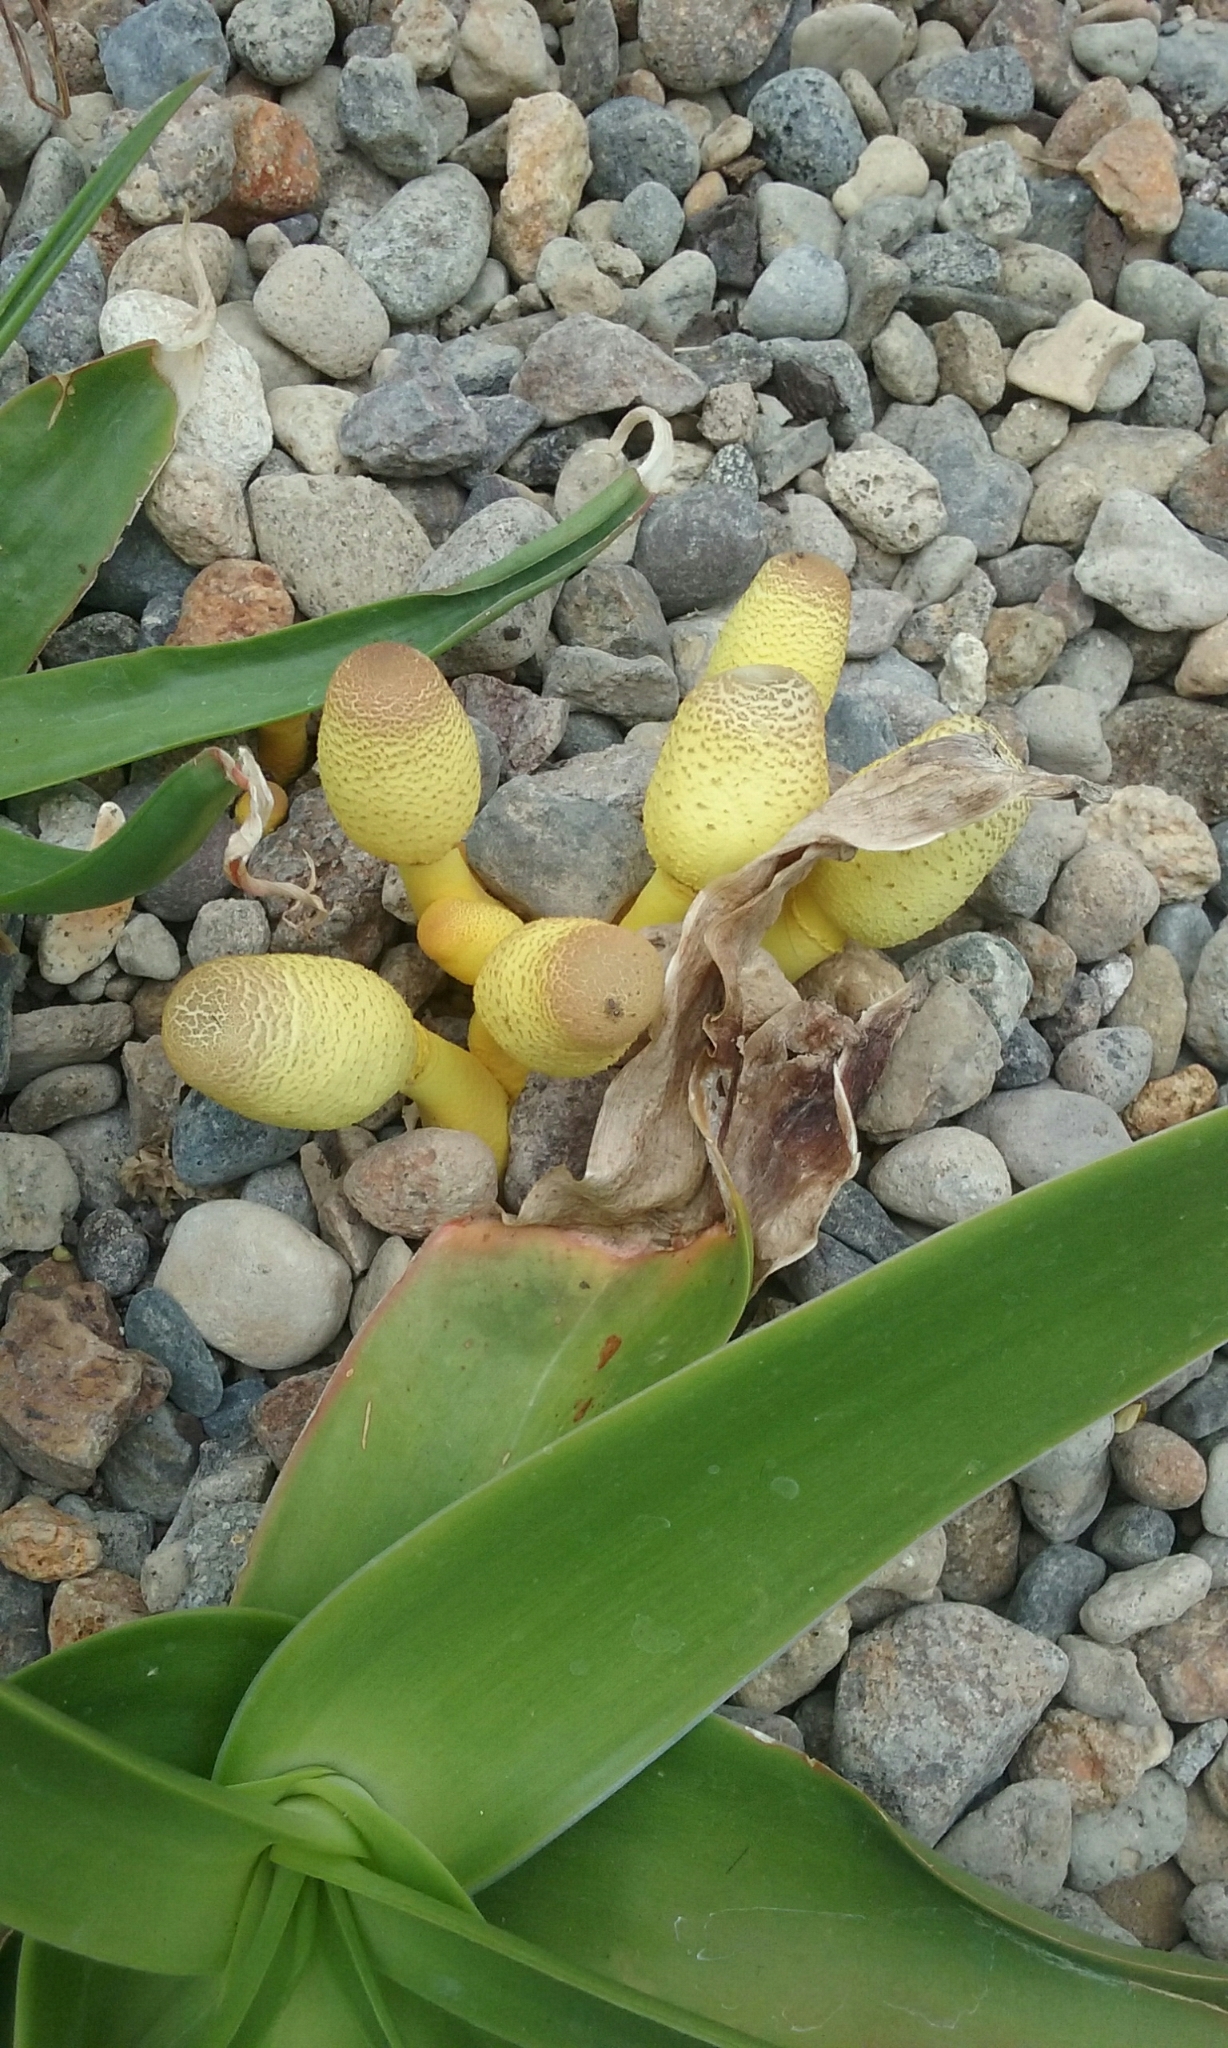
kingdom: Fungi
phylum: Basidiomycota
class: Agaricomycetes
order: Agaricales
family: Agaricaceae
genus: Leucocoprinus
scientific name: Leucocoprinus birnbaumii
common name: Plantpot dapperling
